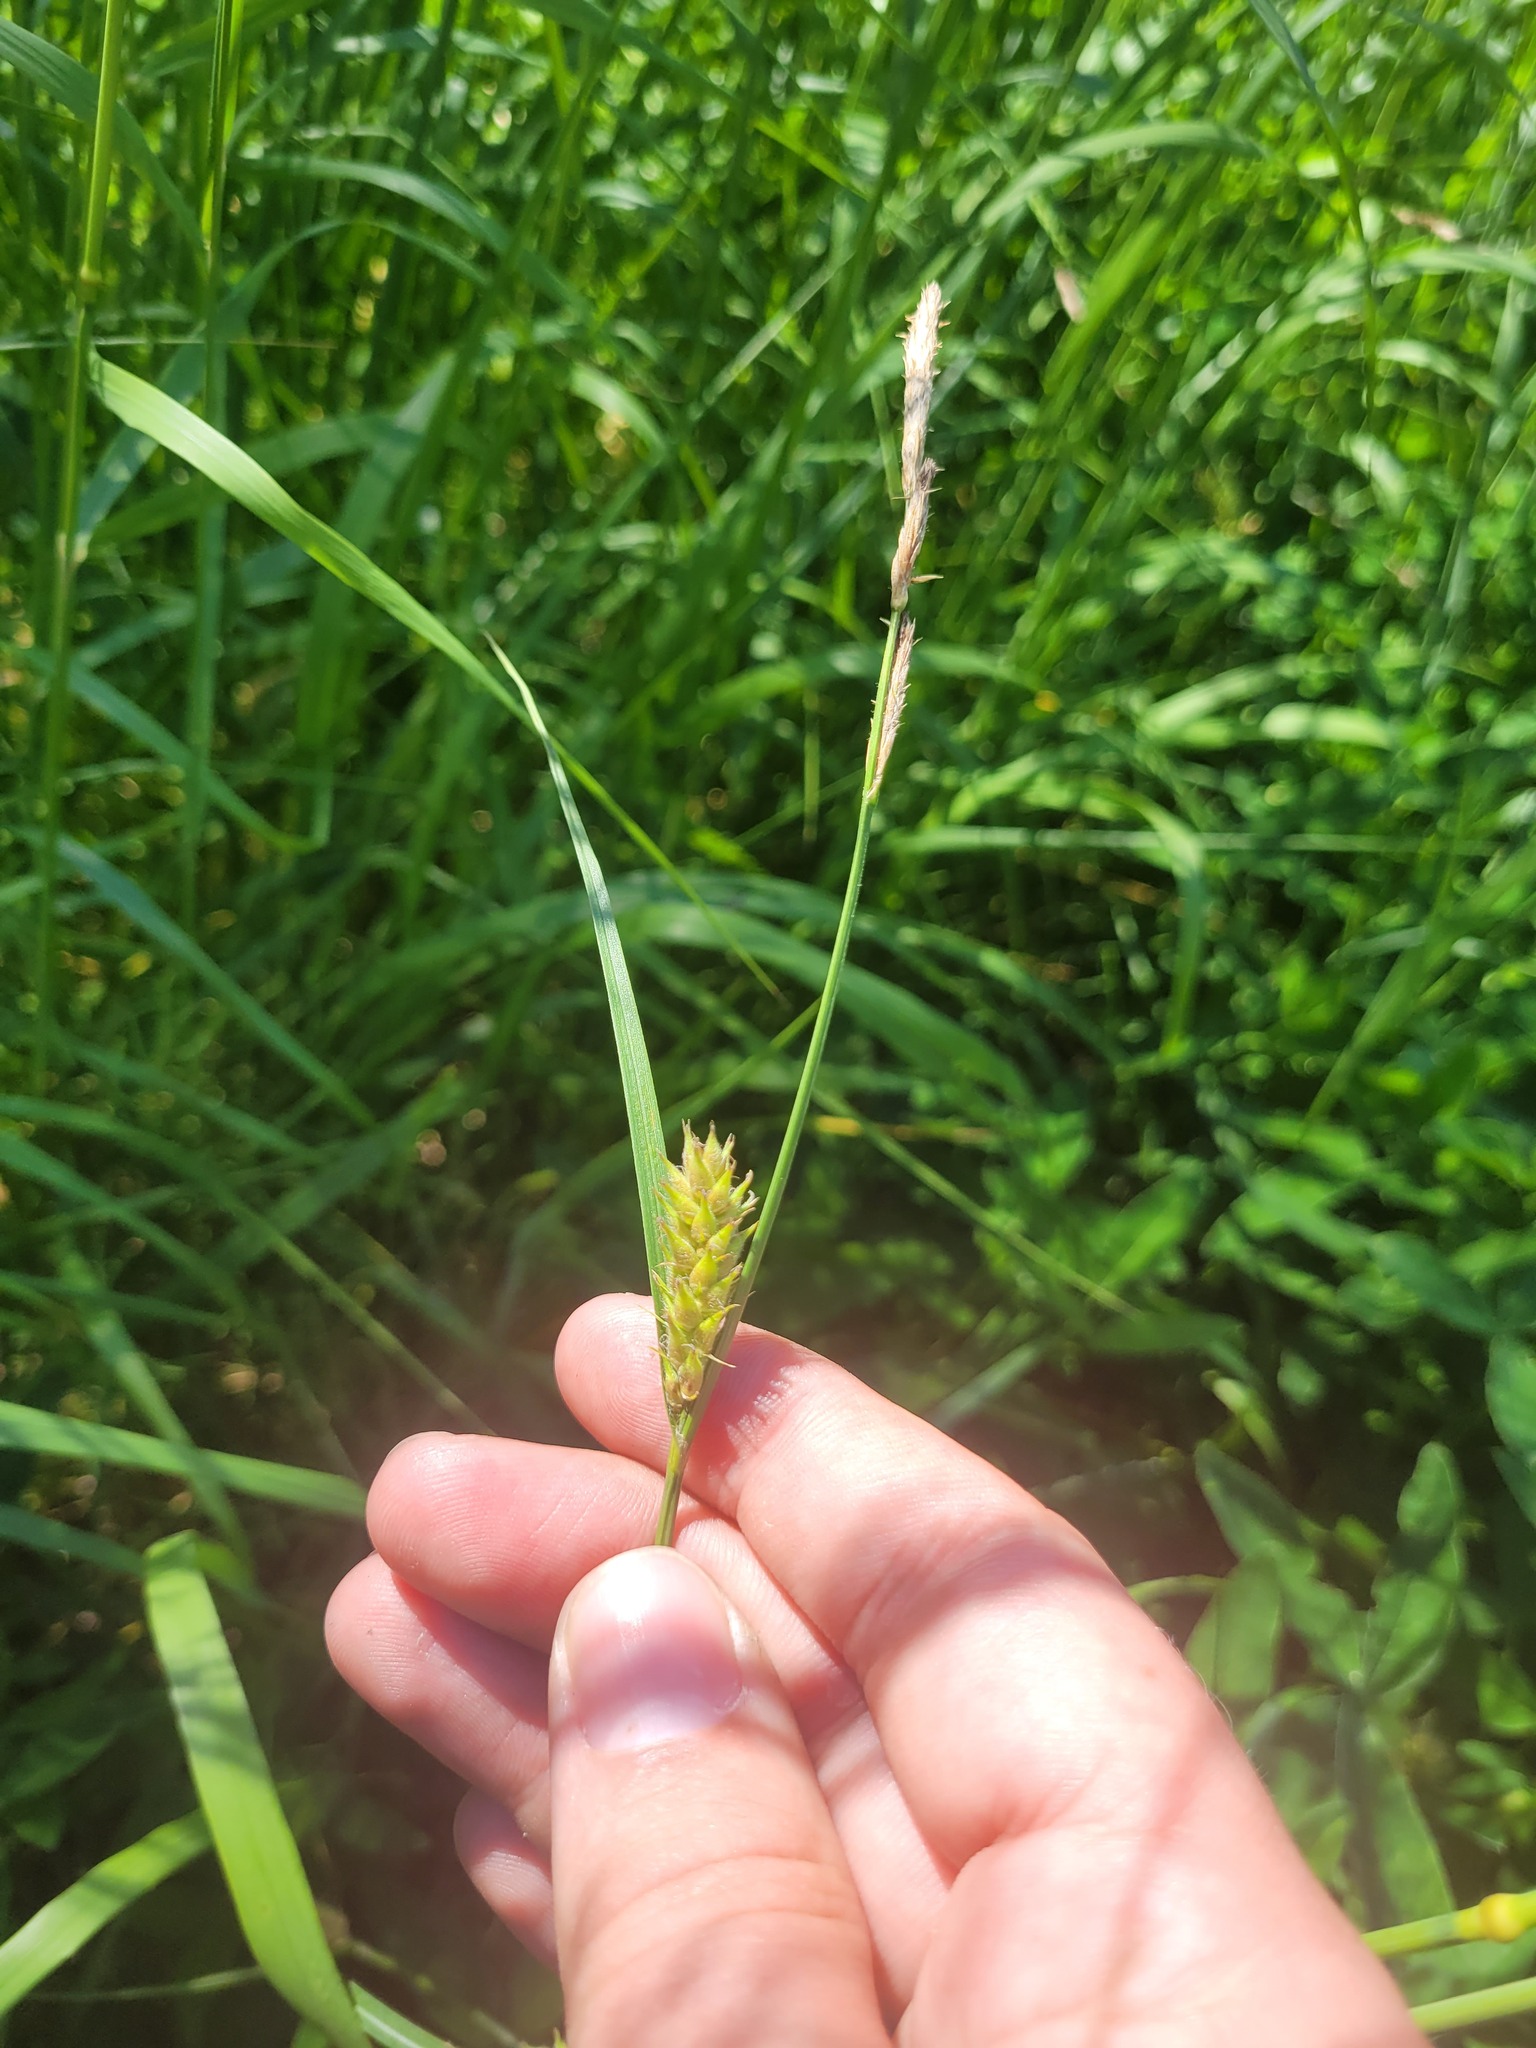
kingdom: Plantae
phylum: Tracheophyta
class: Liliopsida
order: Poales
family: Cyperaceae
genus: Carex
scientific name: Carex hirta
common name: Hairy sedge
